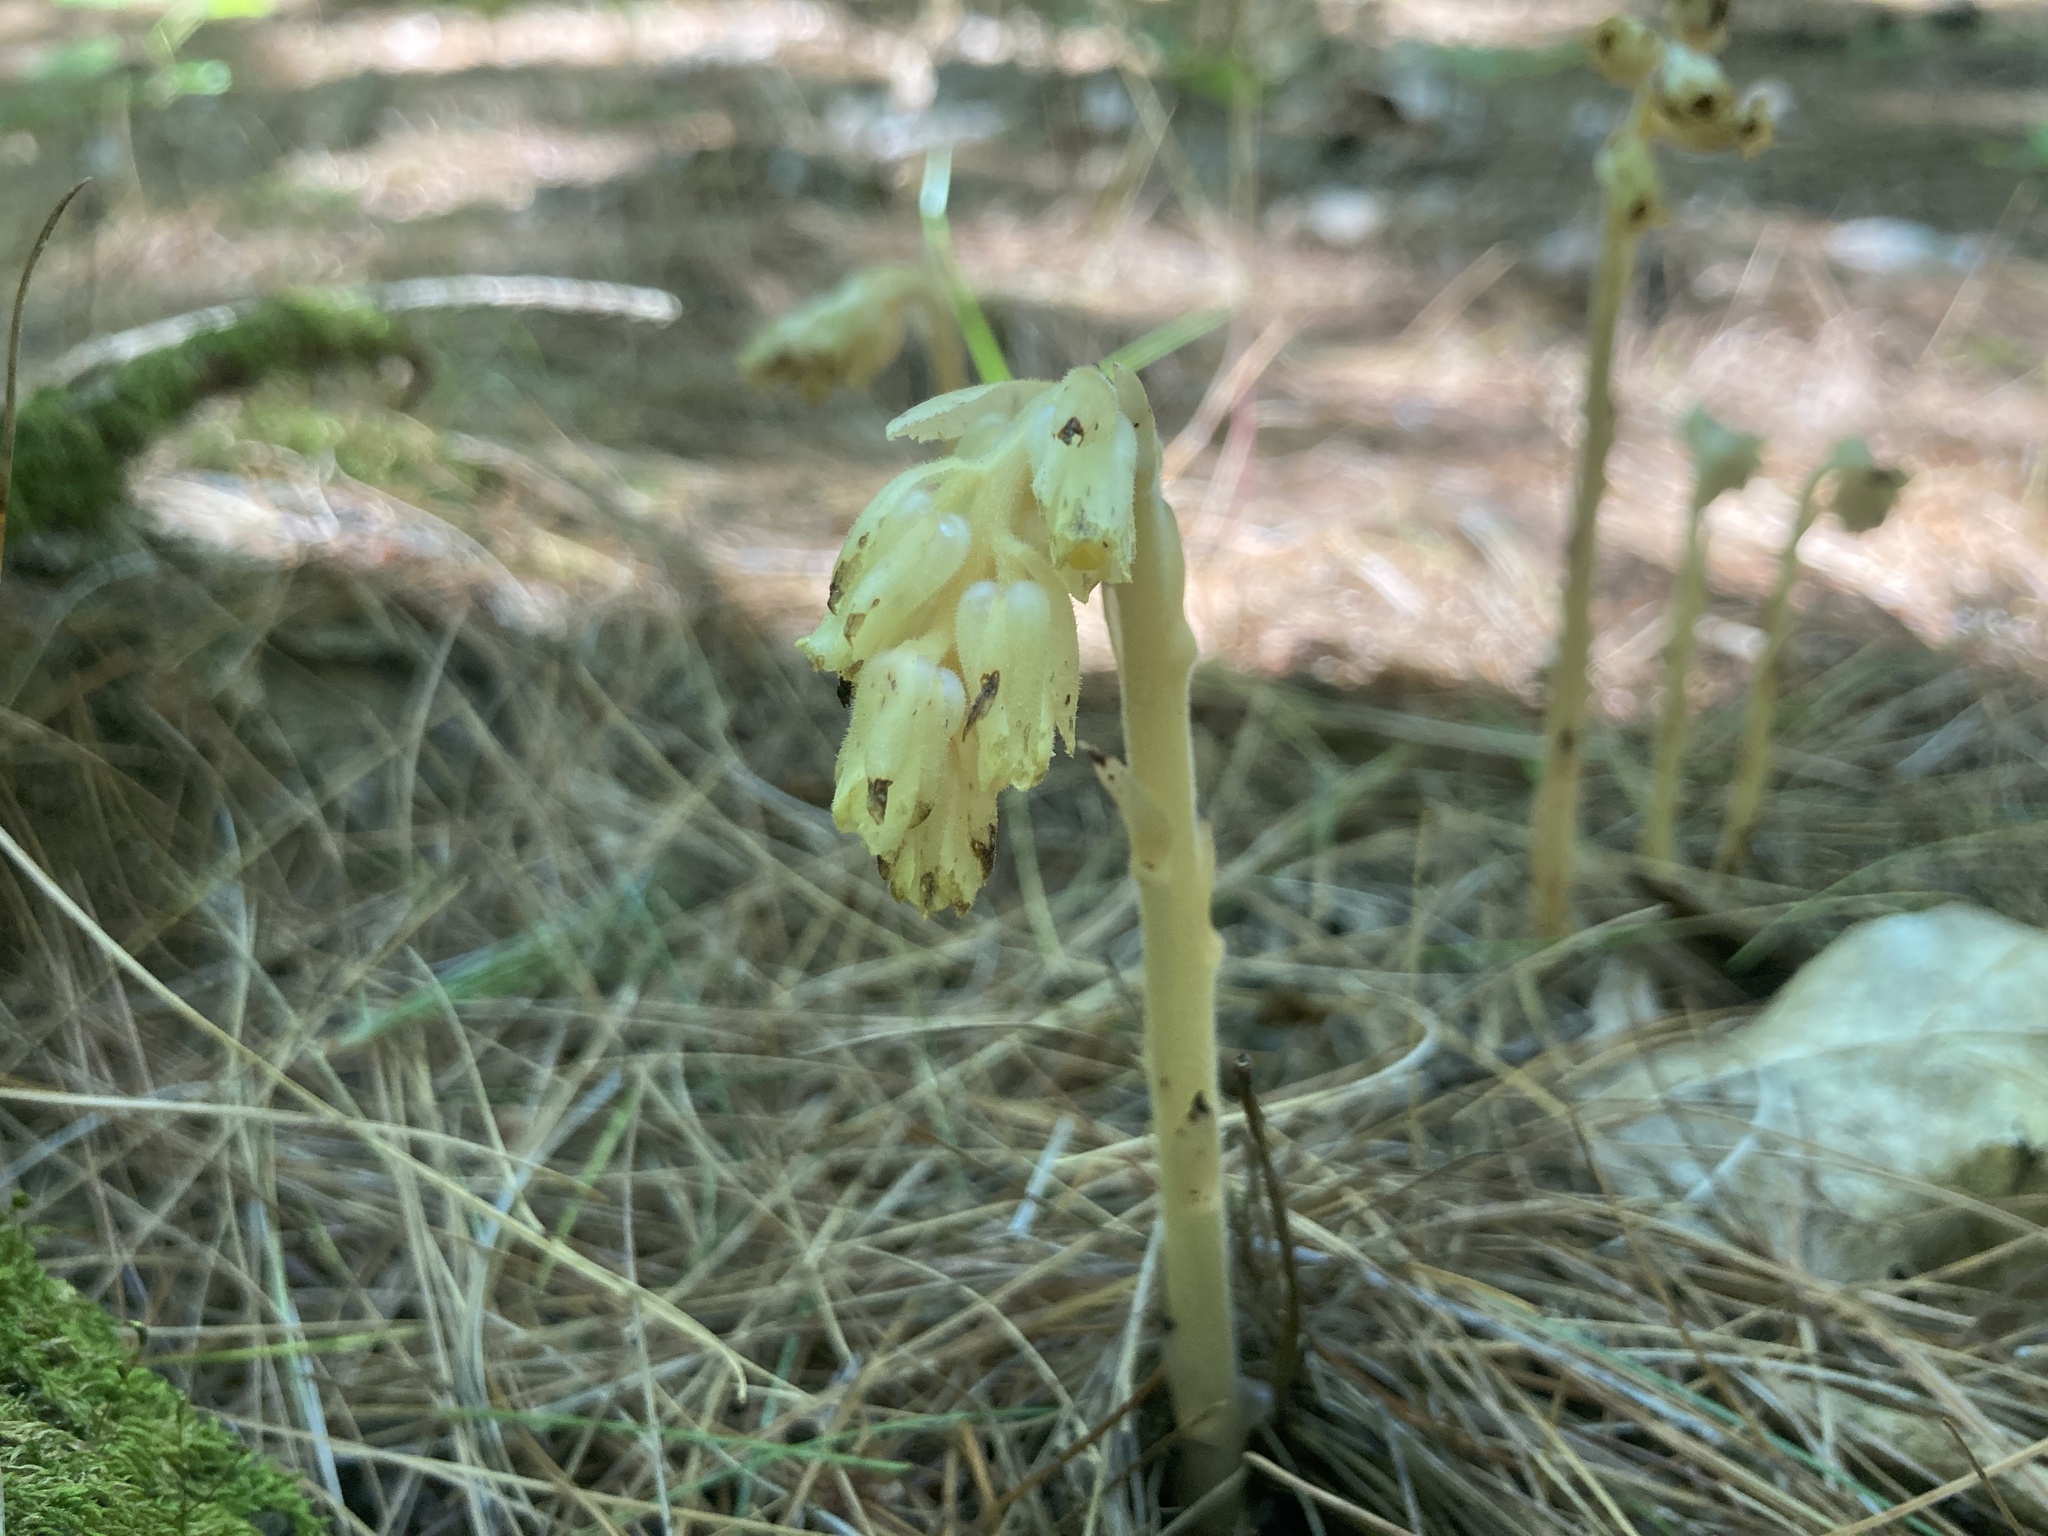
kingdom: Plantae
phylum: Tracheophyta
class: Magnoliopsida
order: Ericales
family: Ericaceae
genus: Hypopitys
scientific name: Hypopitys monotropa
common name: Yellow bird's-nest
